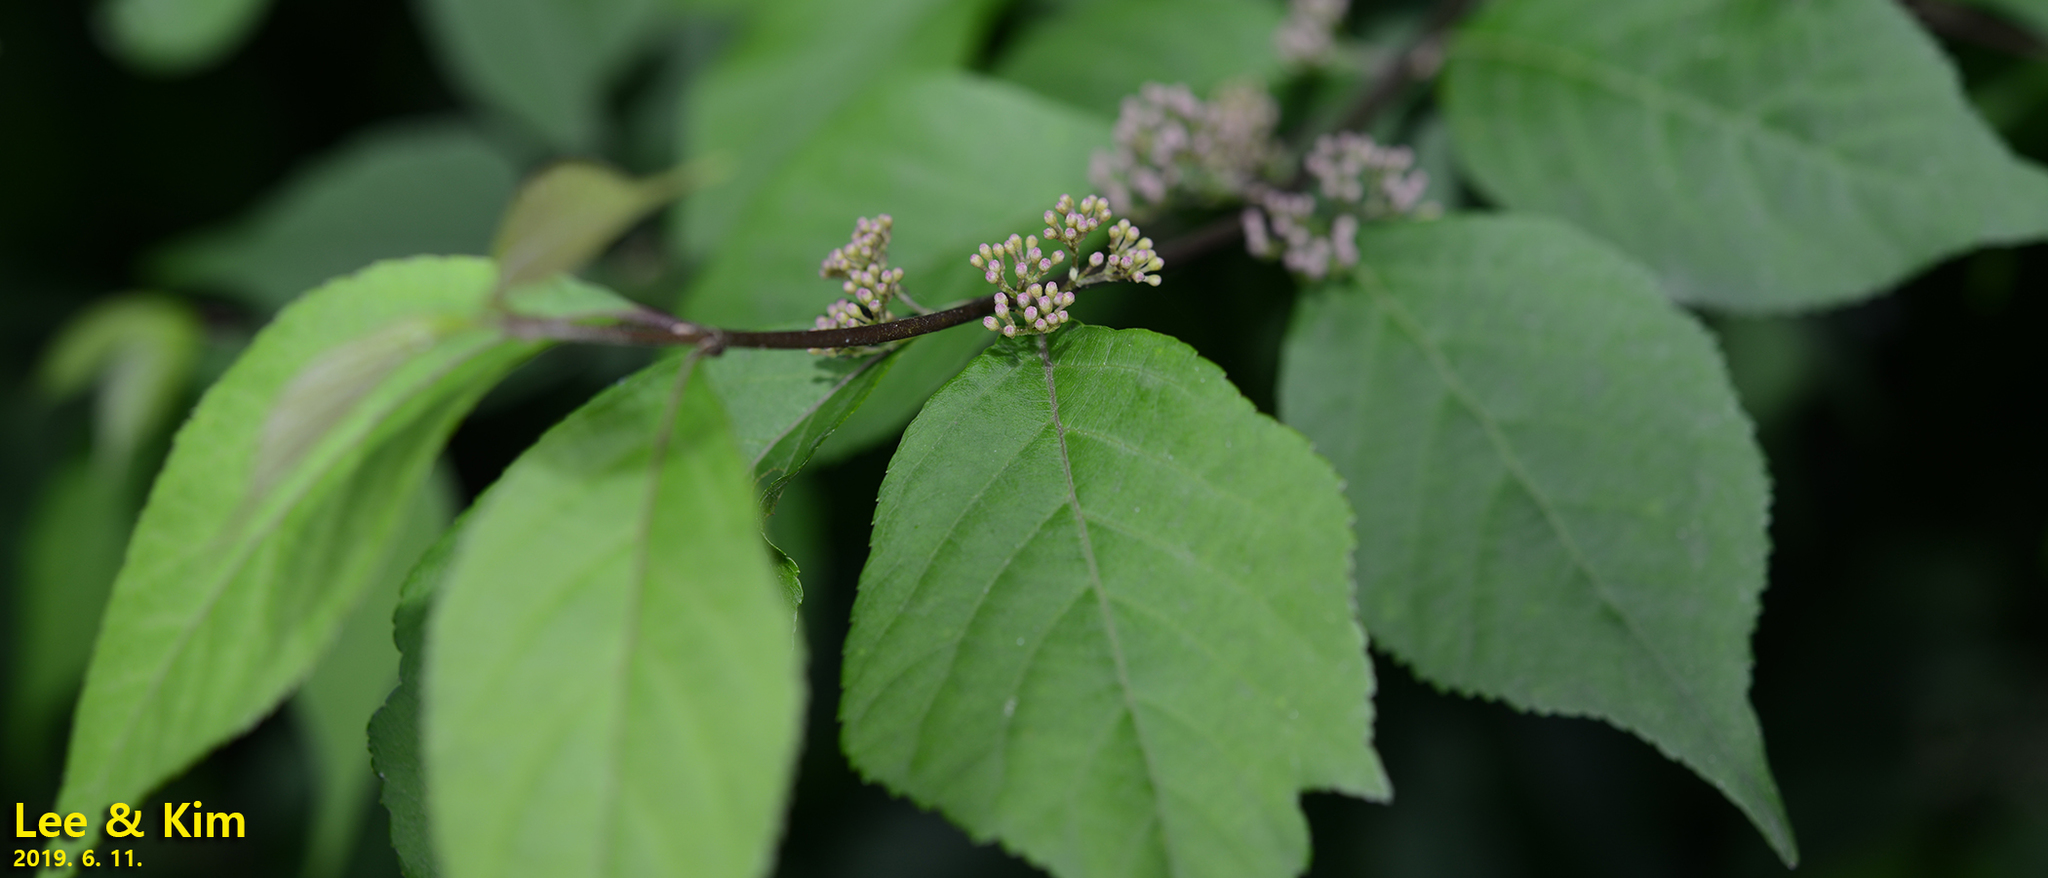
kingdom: Plantae
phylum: Tracheophyta
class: Magnoliopsida
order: Lamiales
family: Lamiaceae
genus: Callicarpa
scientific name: Callicarpa japonica
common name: Japanese beauty-berry
